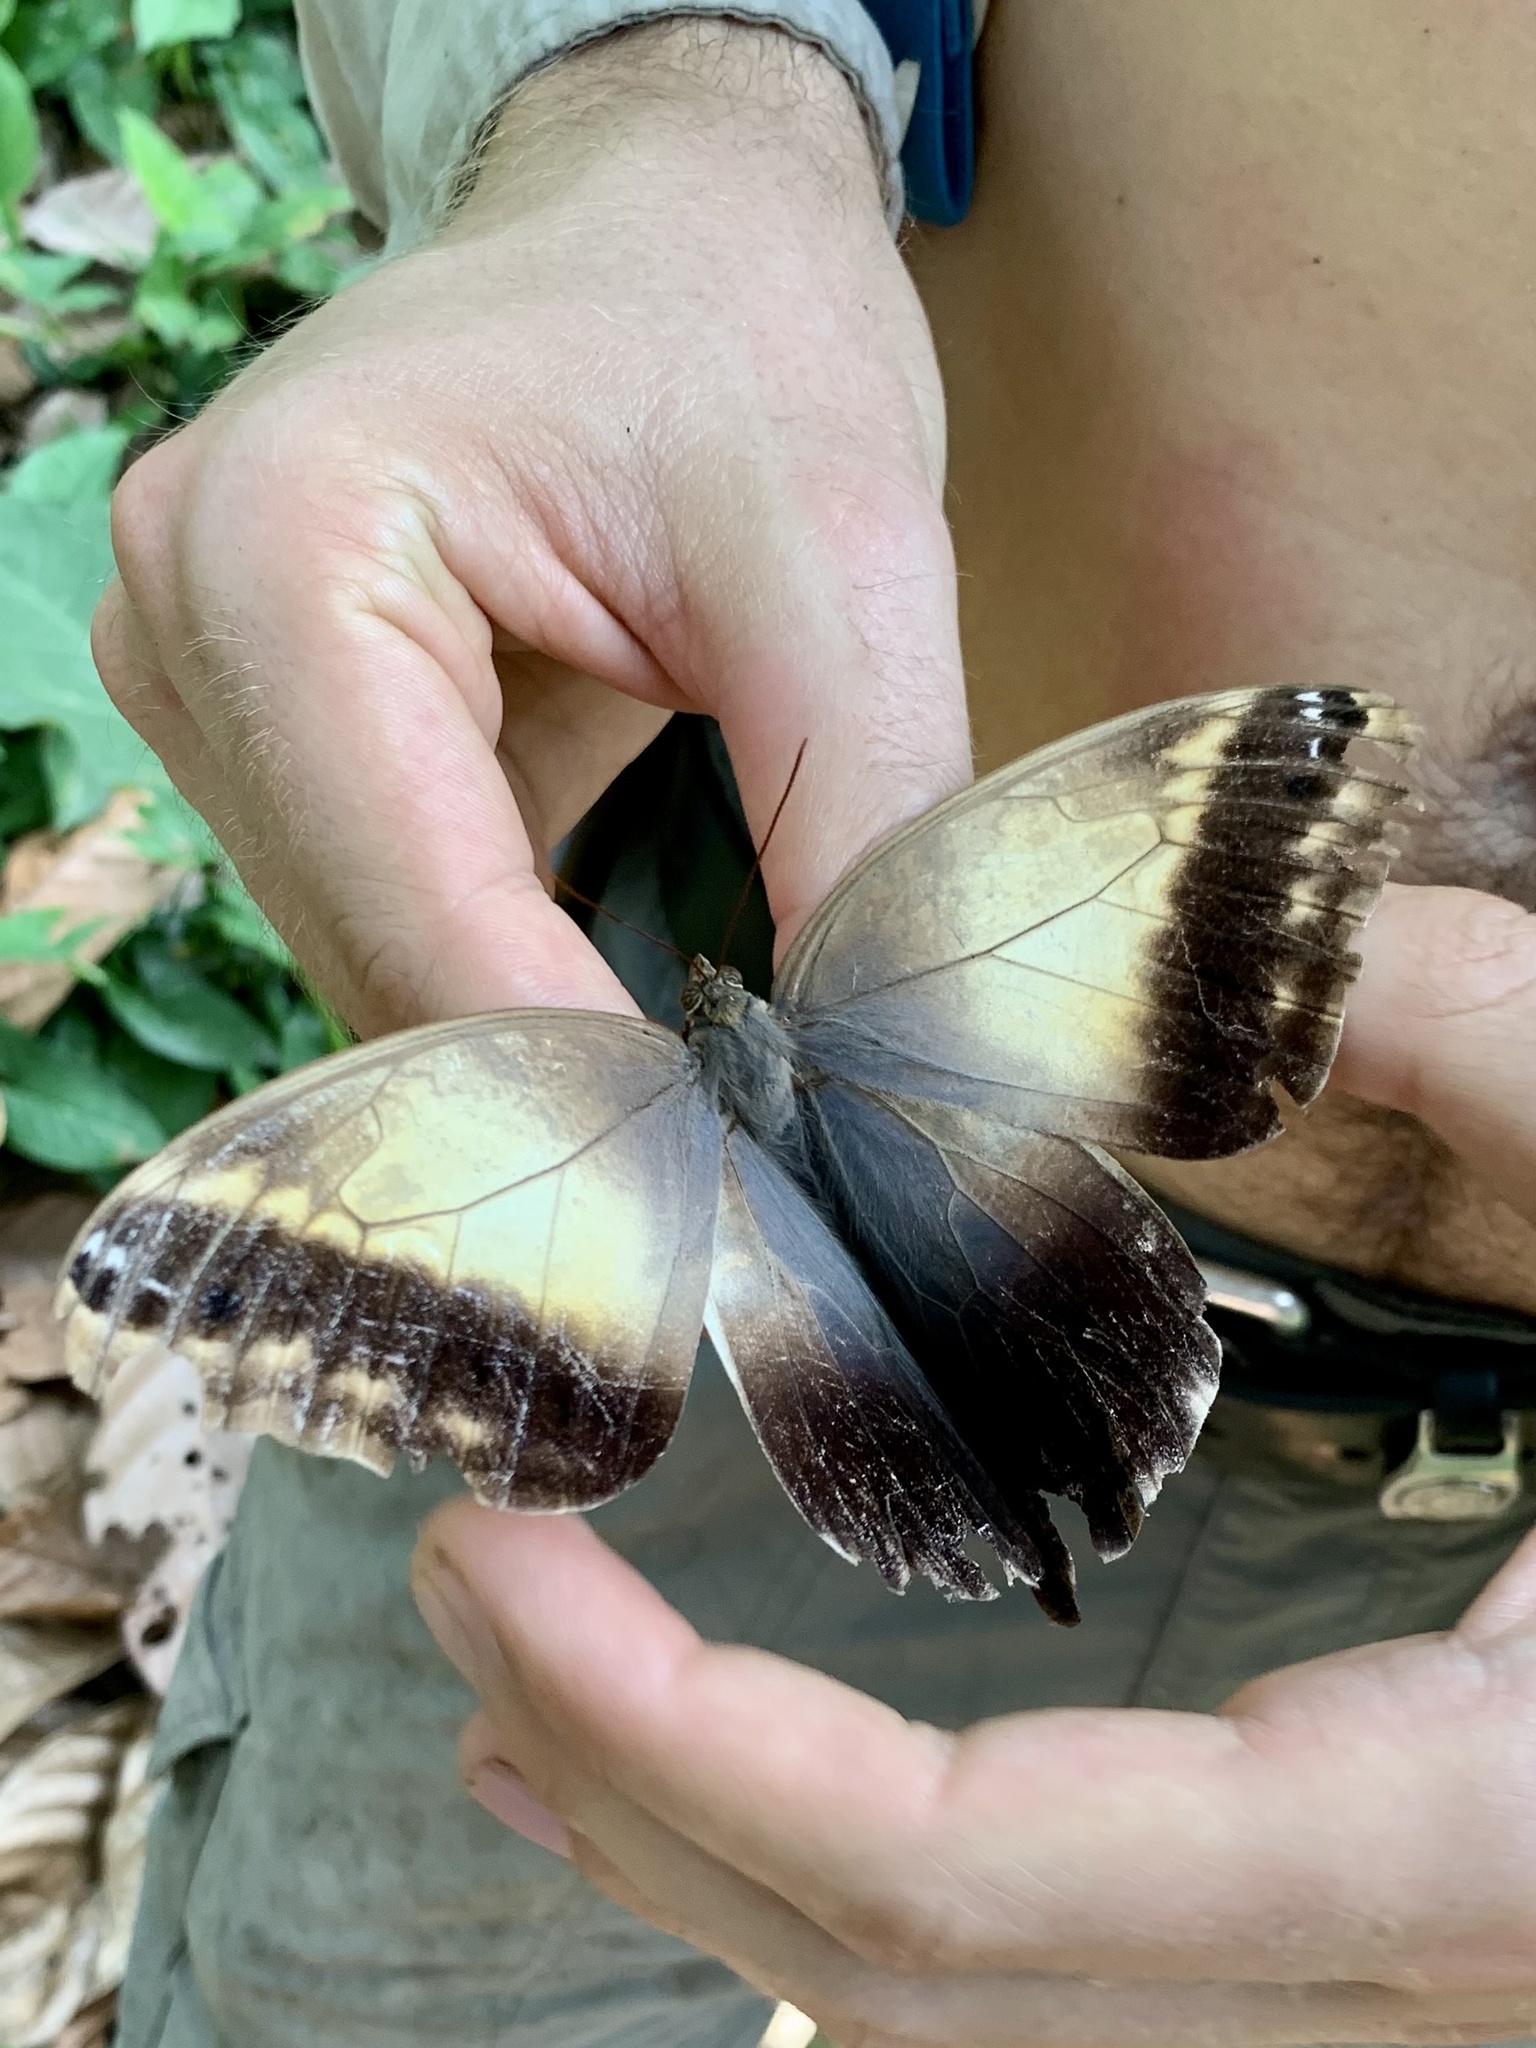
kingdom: Animalia
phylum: Arthropoda
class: Insecta
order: Lepidoptera
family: Nymphalidae
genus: Caligo
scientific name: Caligo telamonius
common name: Pale owl-butterfly
